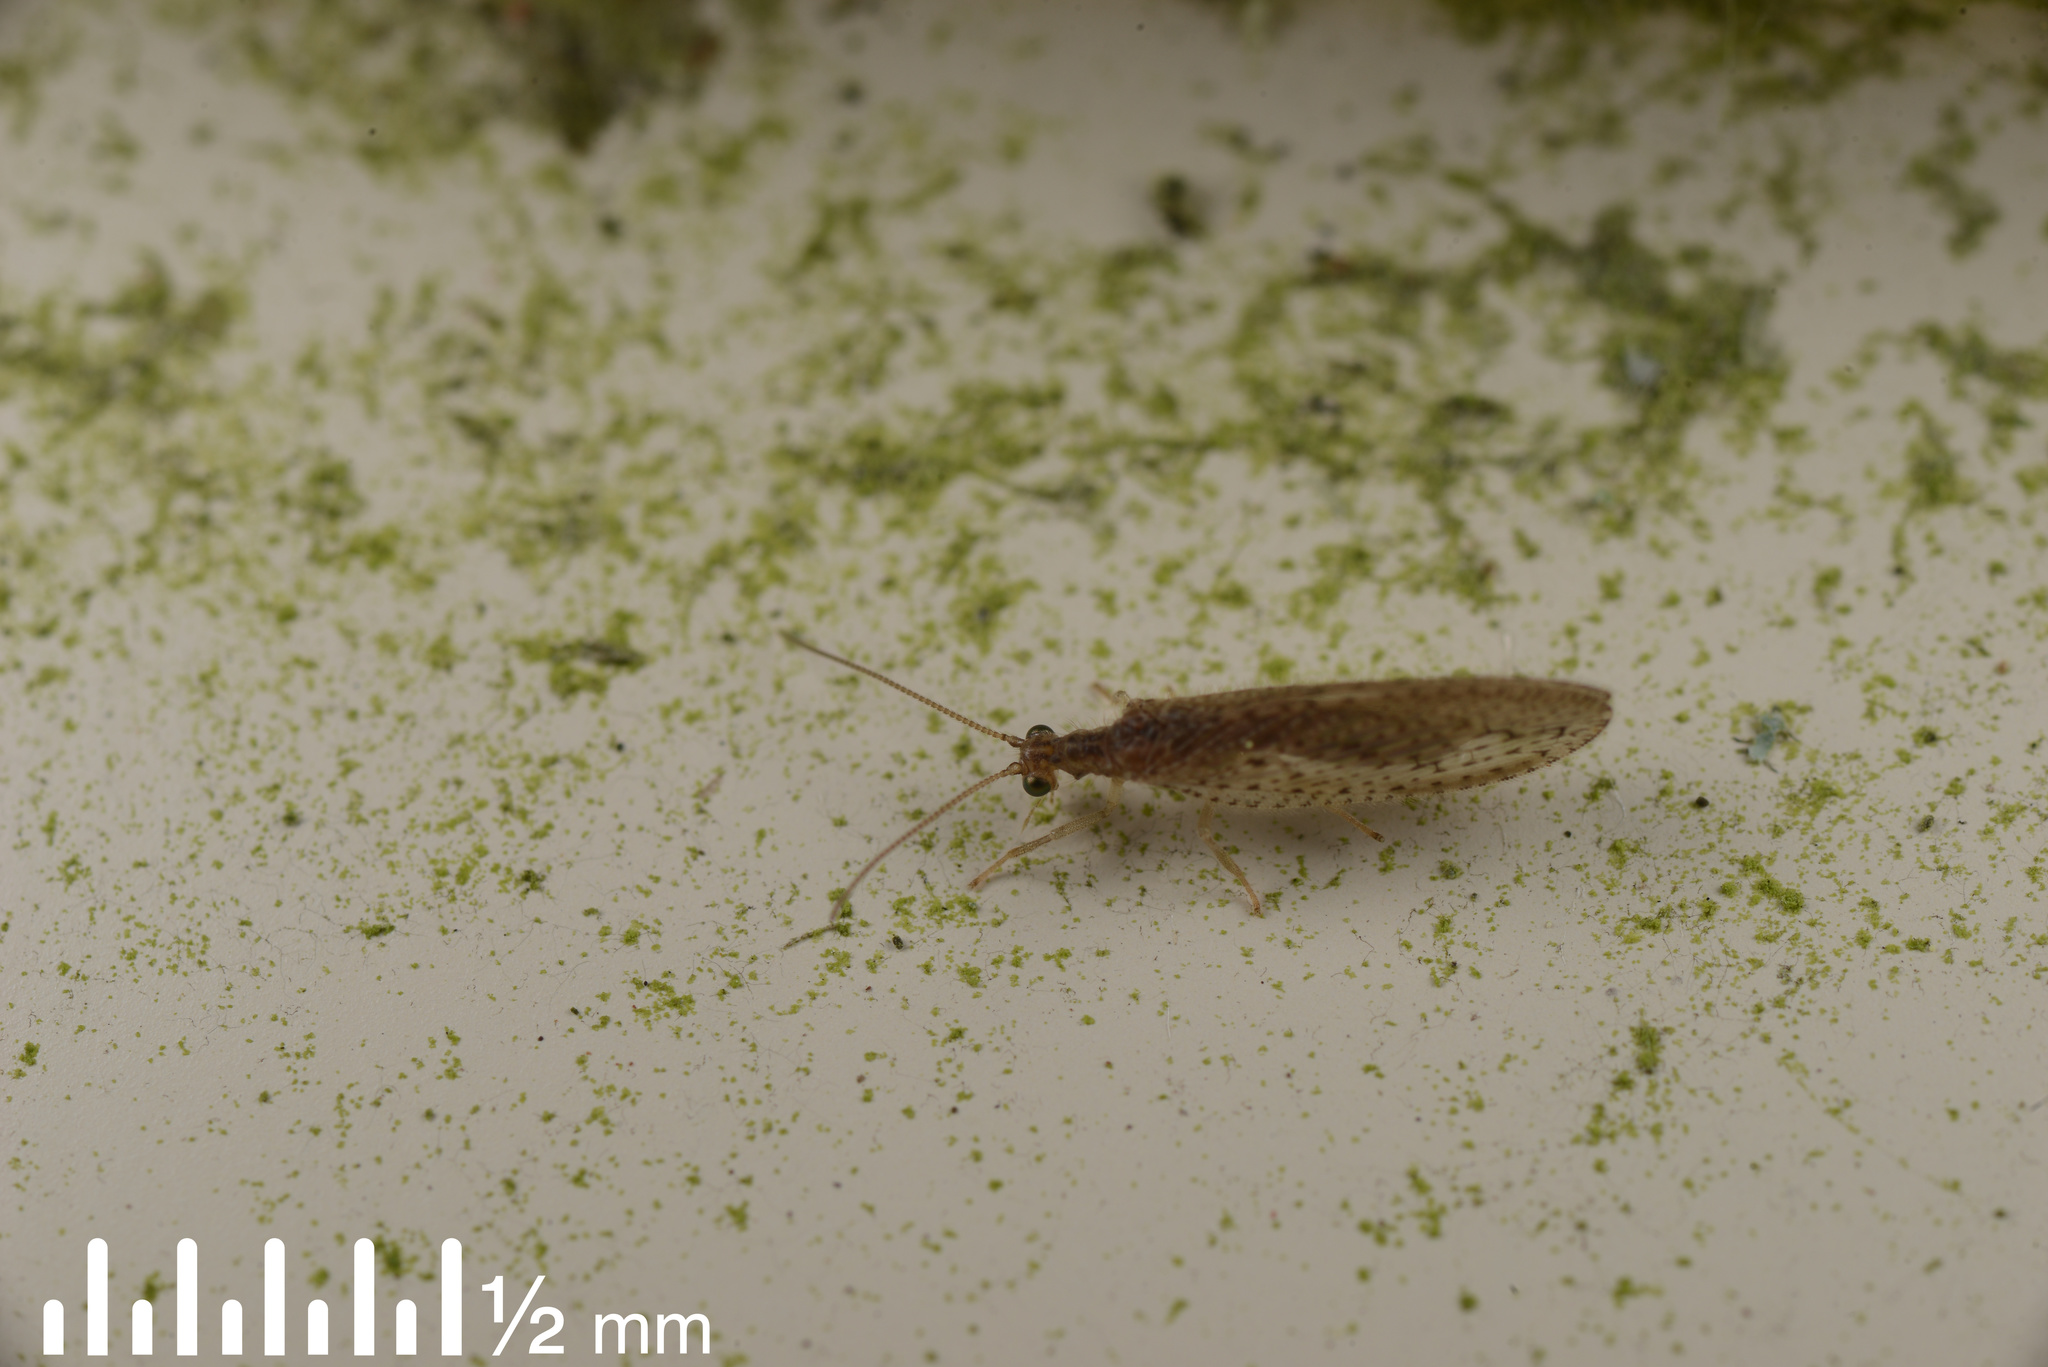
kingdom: Animalia
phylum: Arthropoda
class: Insecta
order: Neuroptera
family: Hemerobiidae
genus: Micromus
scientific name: Micromus tasmaniae
